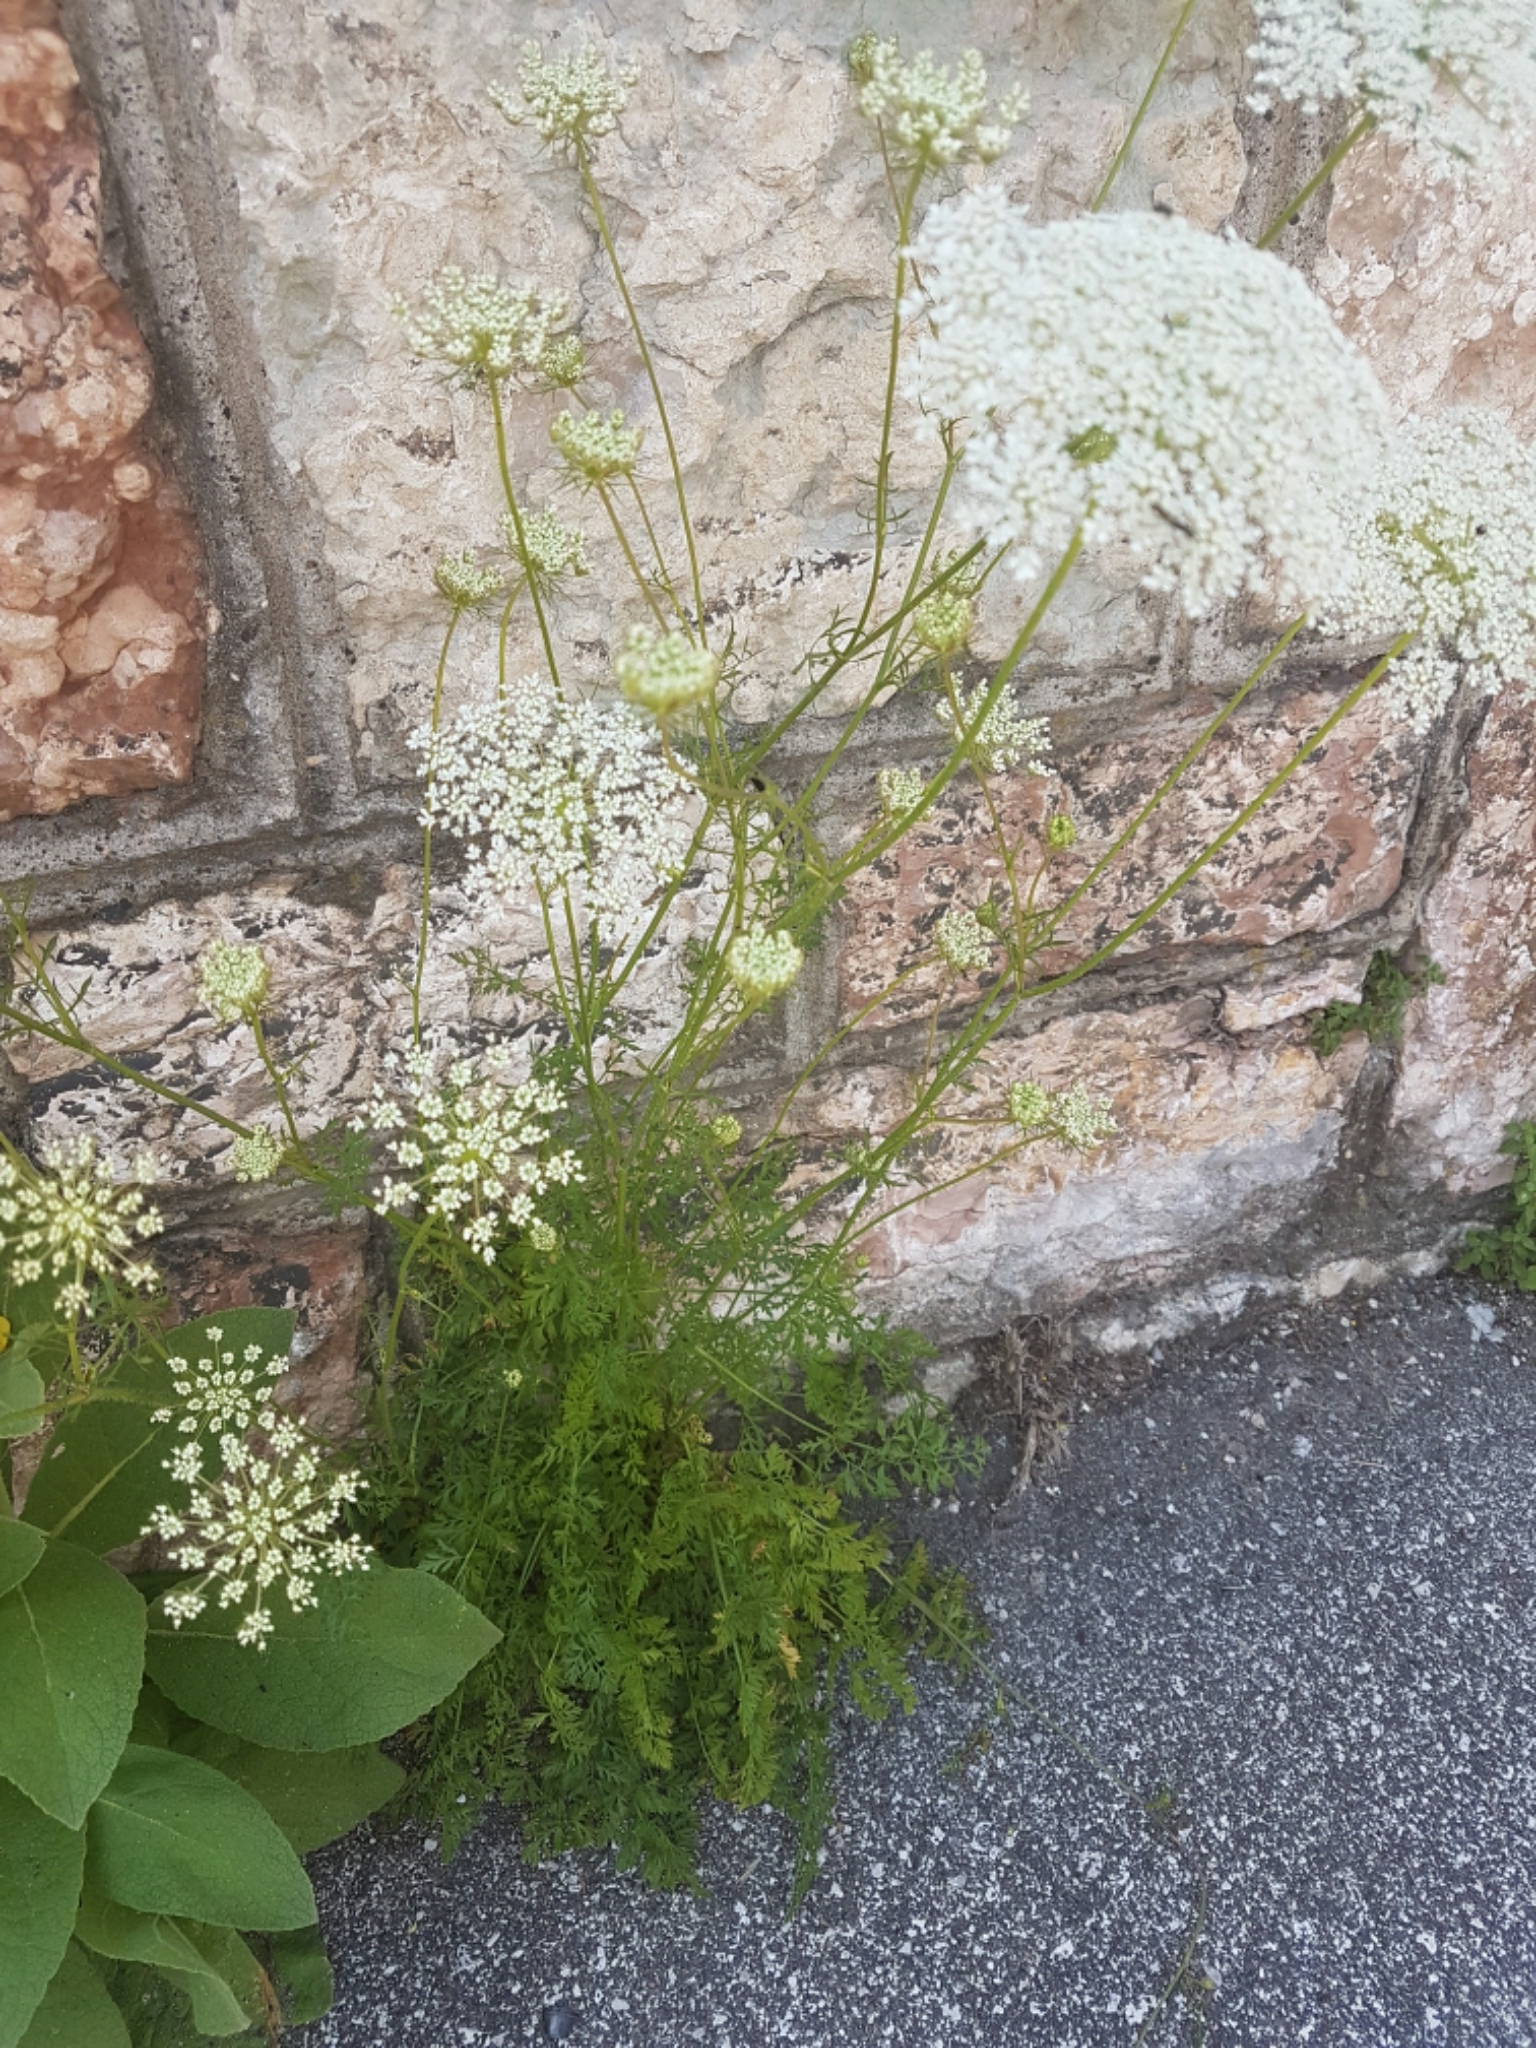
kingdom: Plantae
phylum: Tracheophyta
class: Magnoliopsida
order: Apiales
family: Apiaceae
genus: Daucus
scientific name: Daucus carota
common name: Wild carrot
